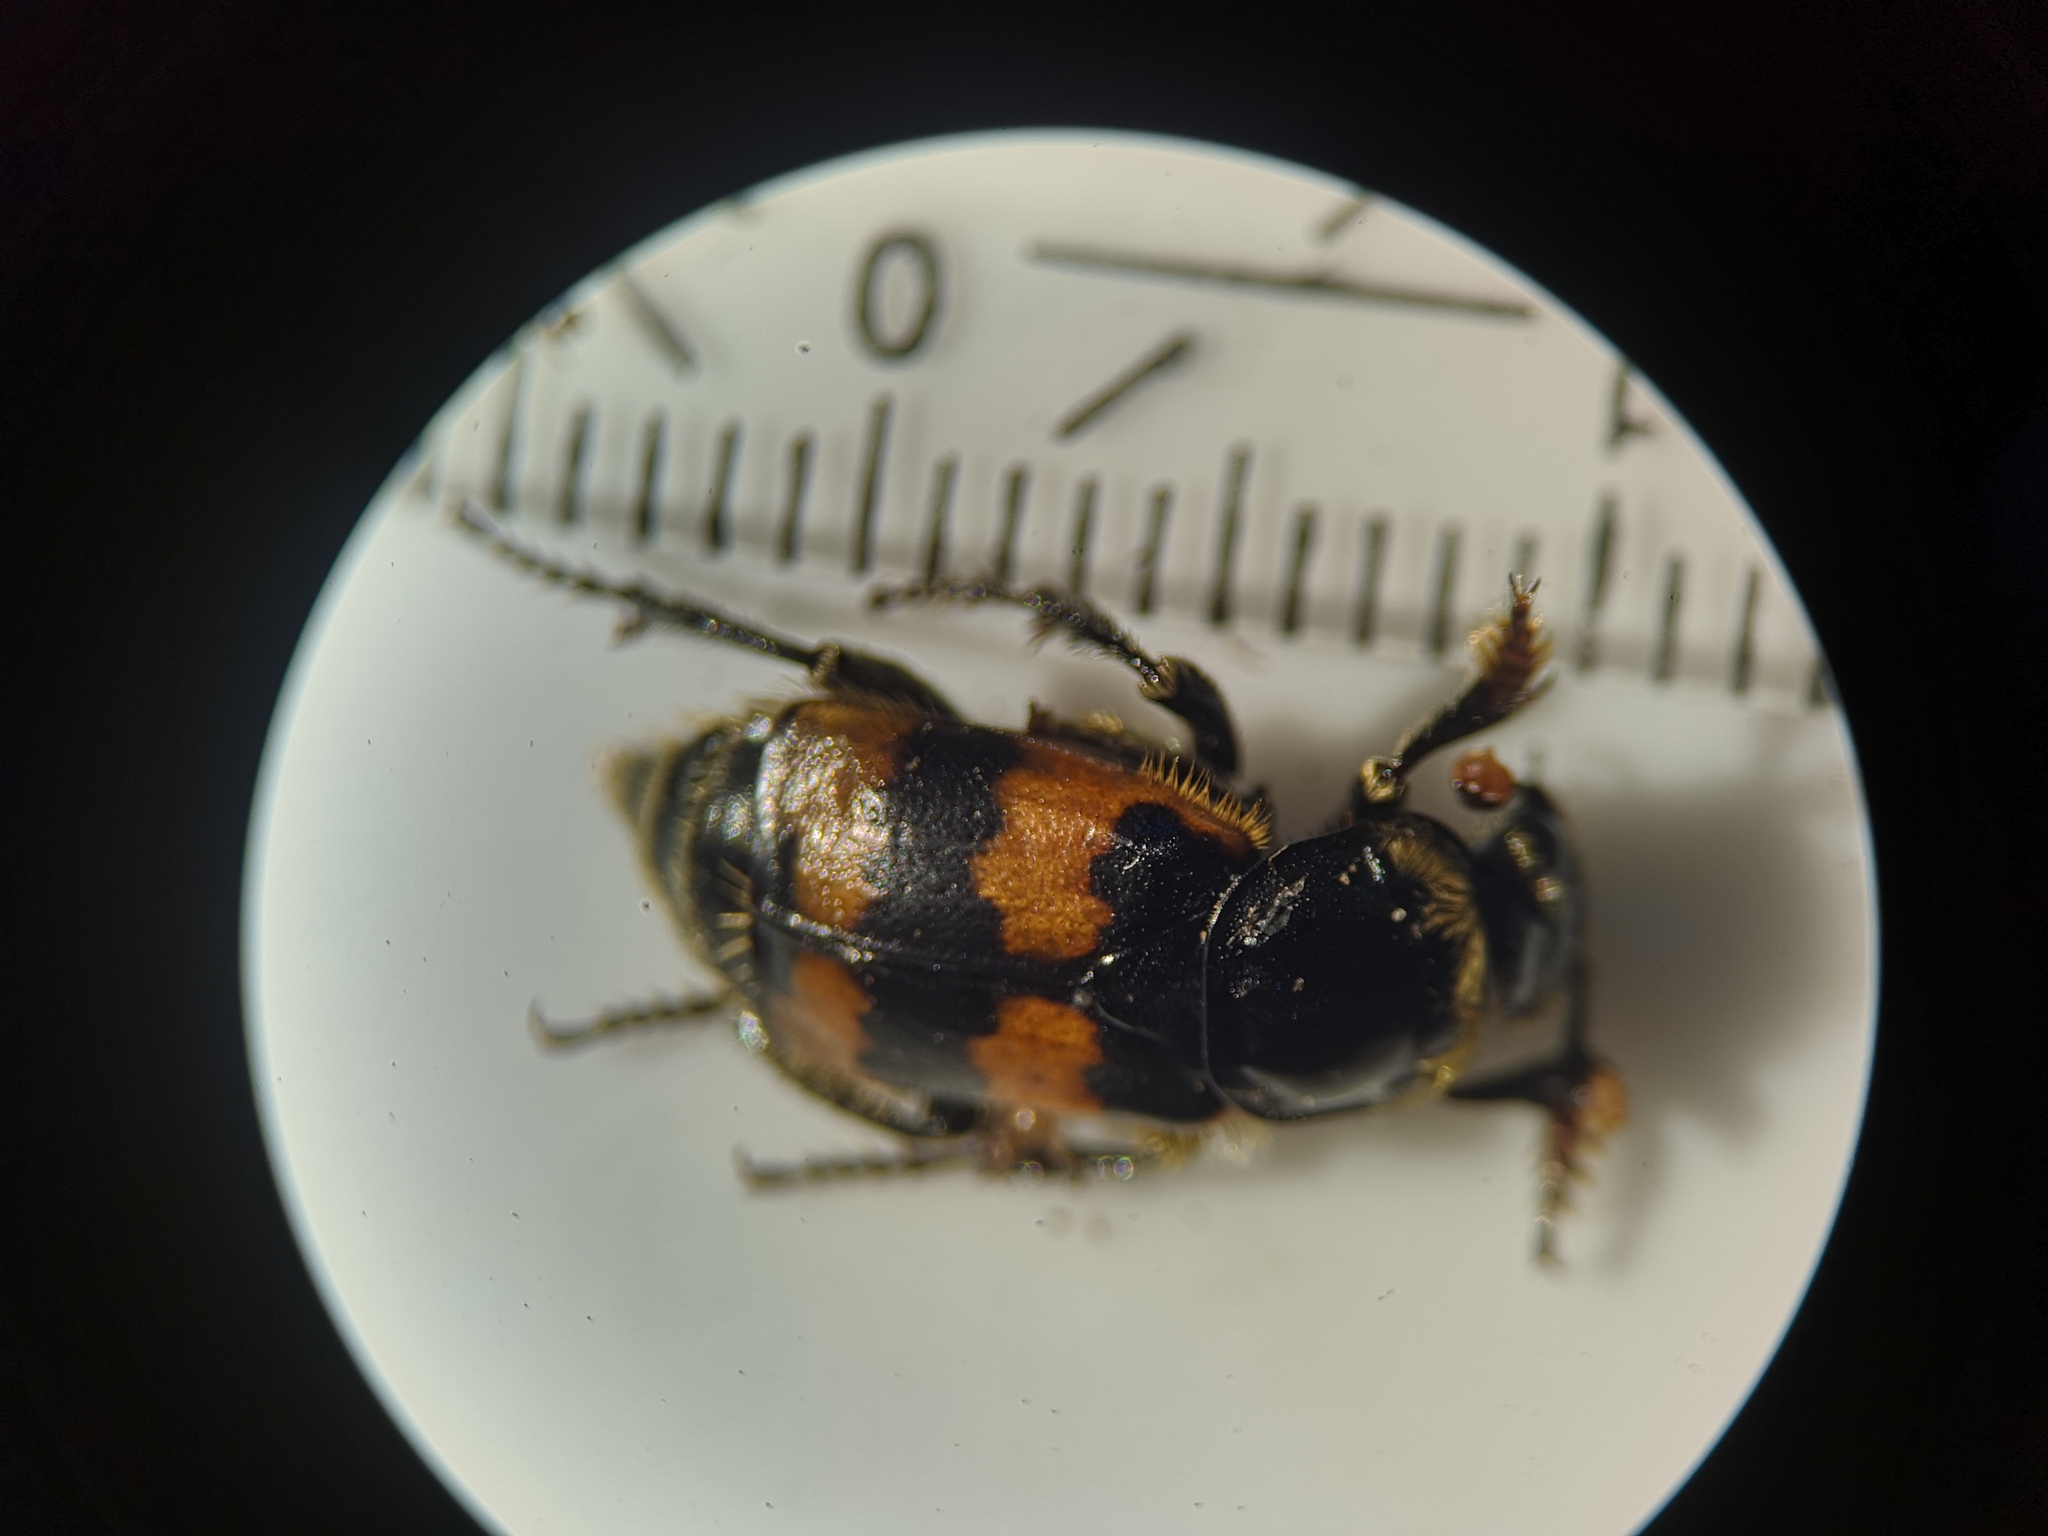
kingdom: Animalia
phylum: Arthropoda
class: Insecta
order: Coleoptera
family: Staphylinidae
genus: Nicrophorus
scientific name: Nicrophorus vespillo
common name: Common burying beetle
